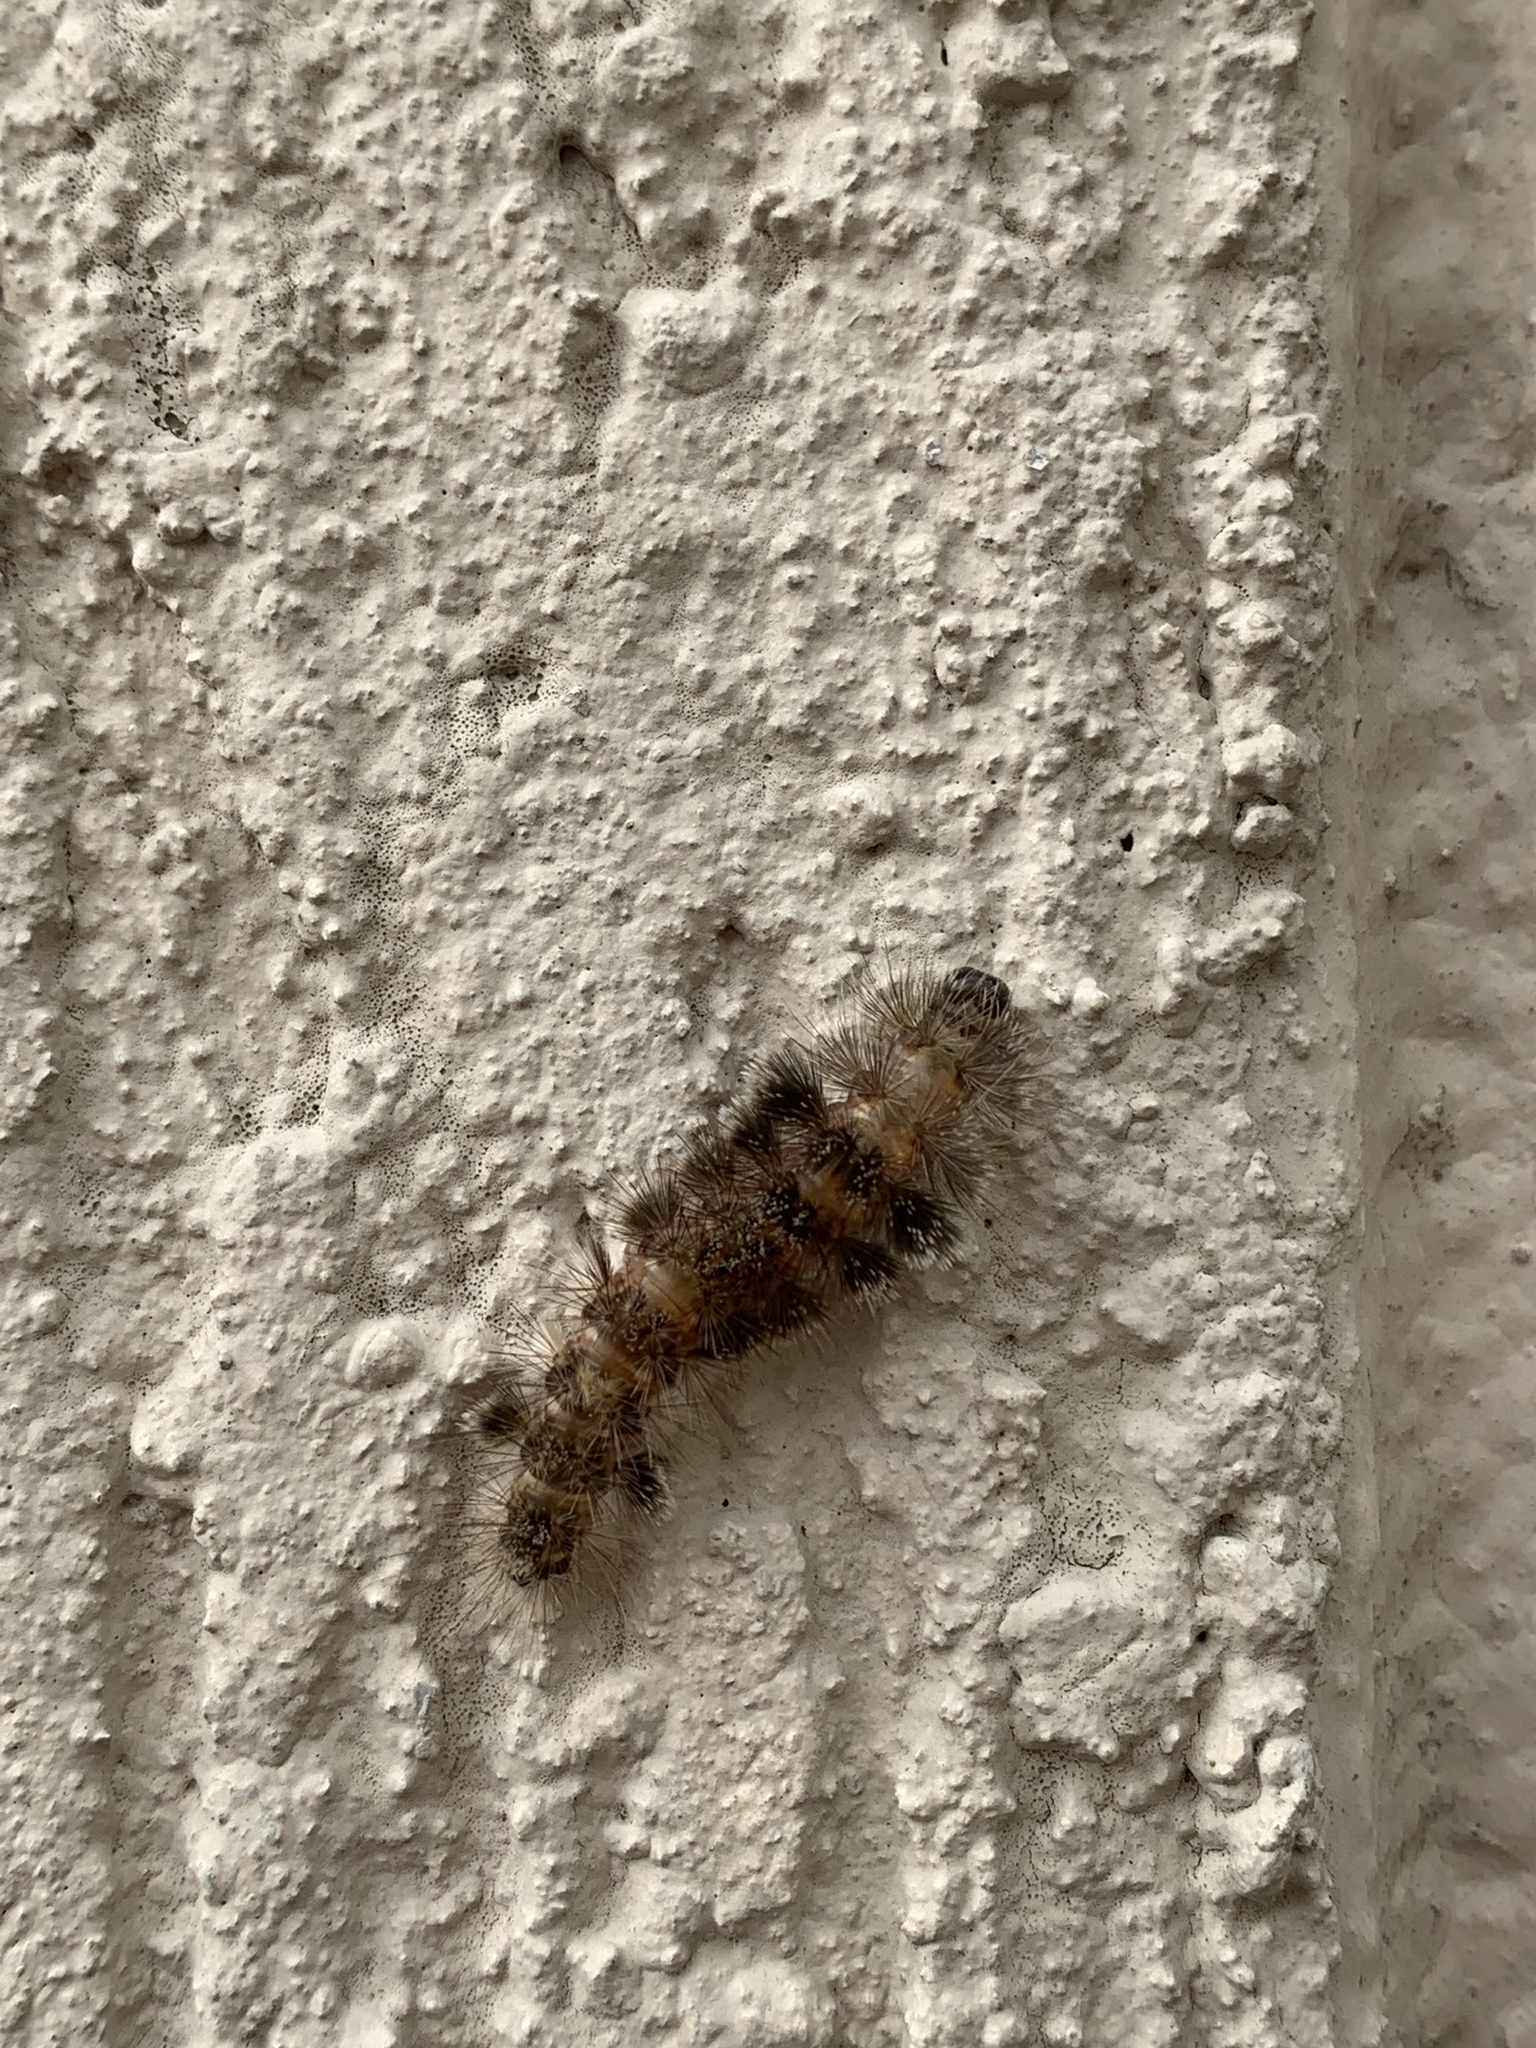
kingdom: Animalia
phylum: Arthropoda
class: Insecta
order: Lepidoptera
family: Erebidae
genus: Eucereon
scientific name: Eucereon sylvius
